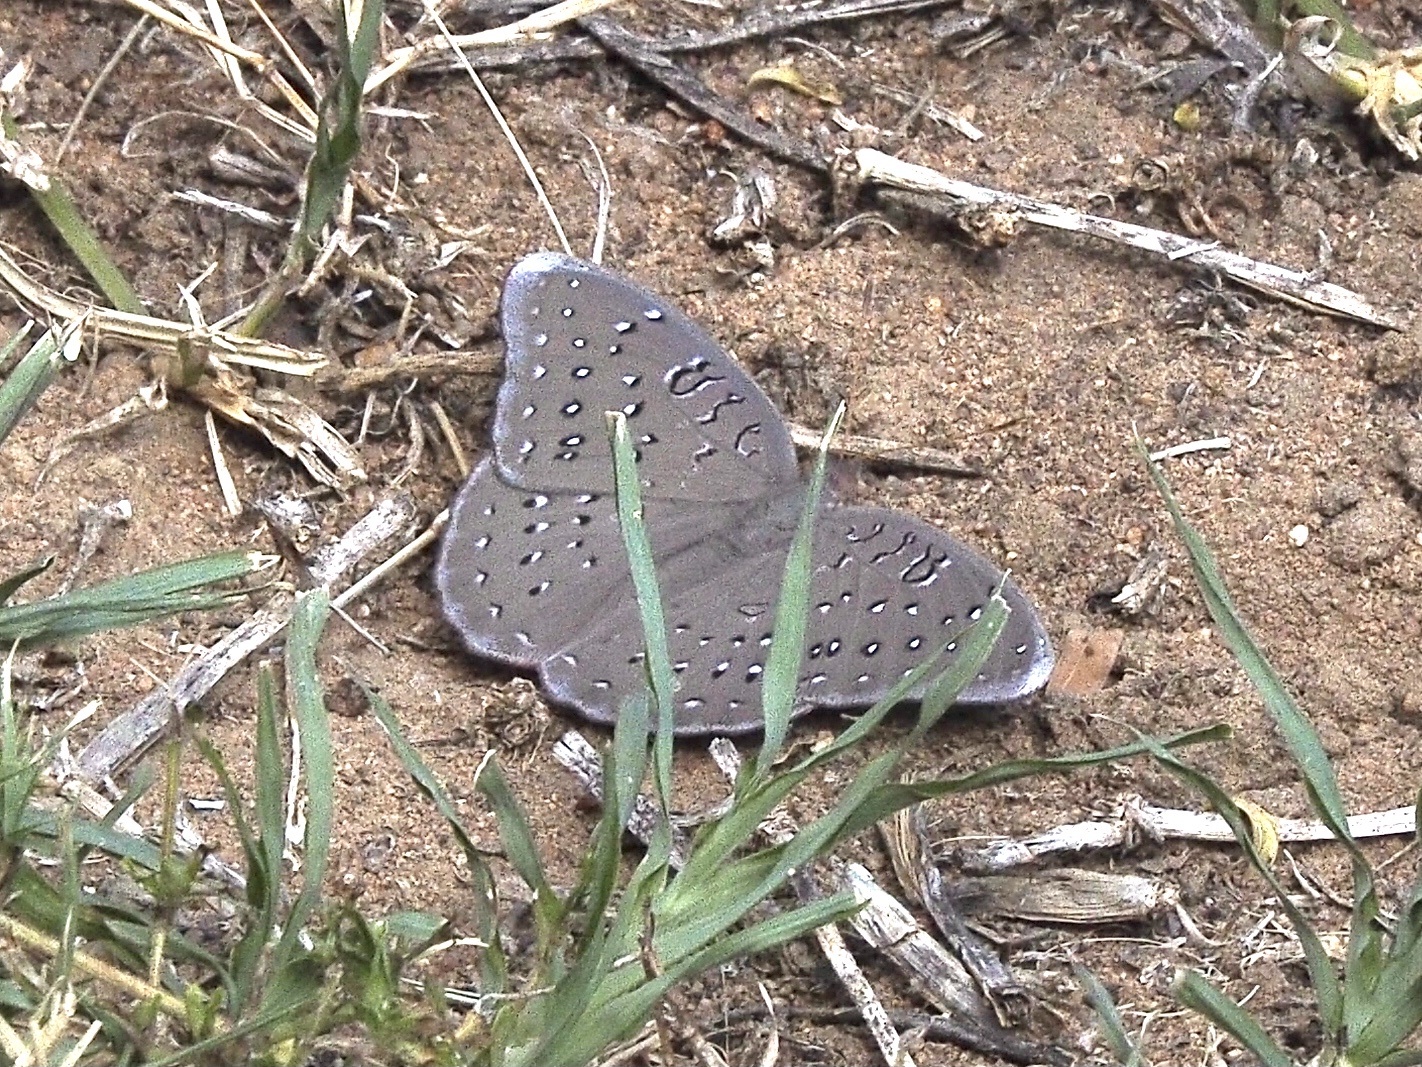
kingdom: Animalia
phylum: Arthropoda
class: Insecta
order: Lepidoptera
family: Nymphalidae
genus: Hamanumida
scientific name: Hamanumida daedalus
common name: Guinea-fowl butterfly
